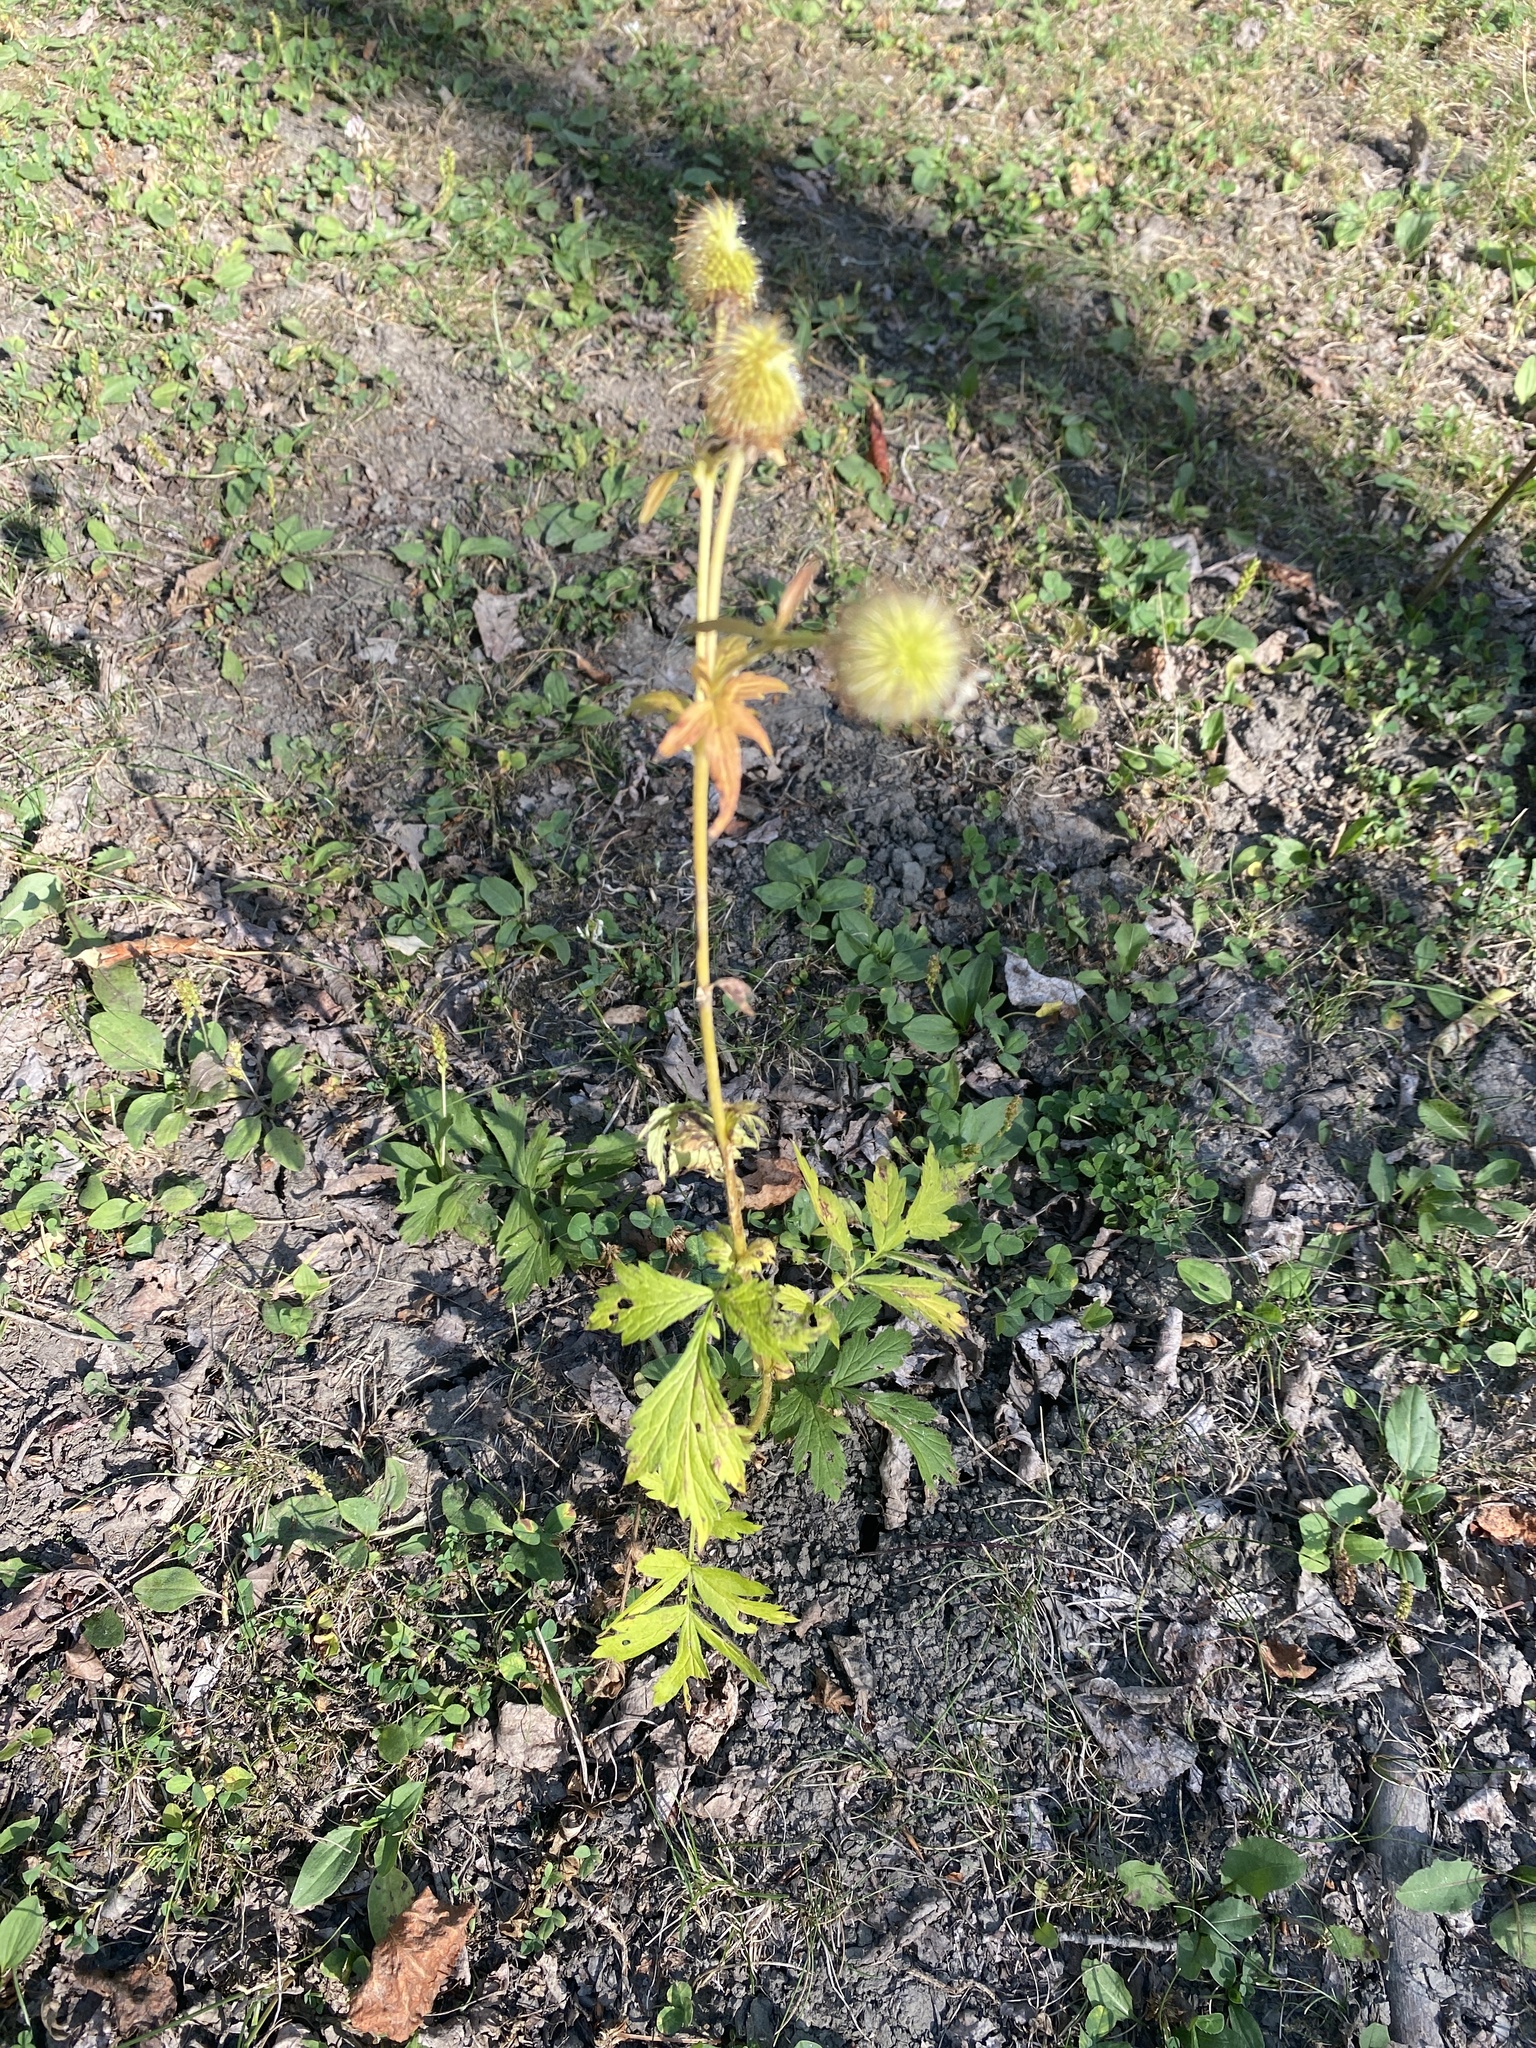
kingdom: Plantae
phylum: Tracheophyta
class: Magnoliopsida
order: Rosales
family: Rosaceae
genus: Geum
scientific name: Geum aleppicum
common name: Yellow avens
